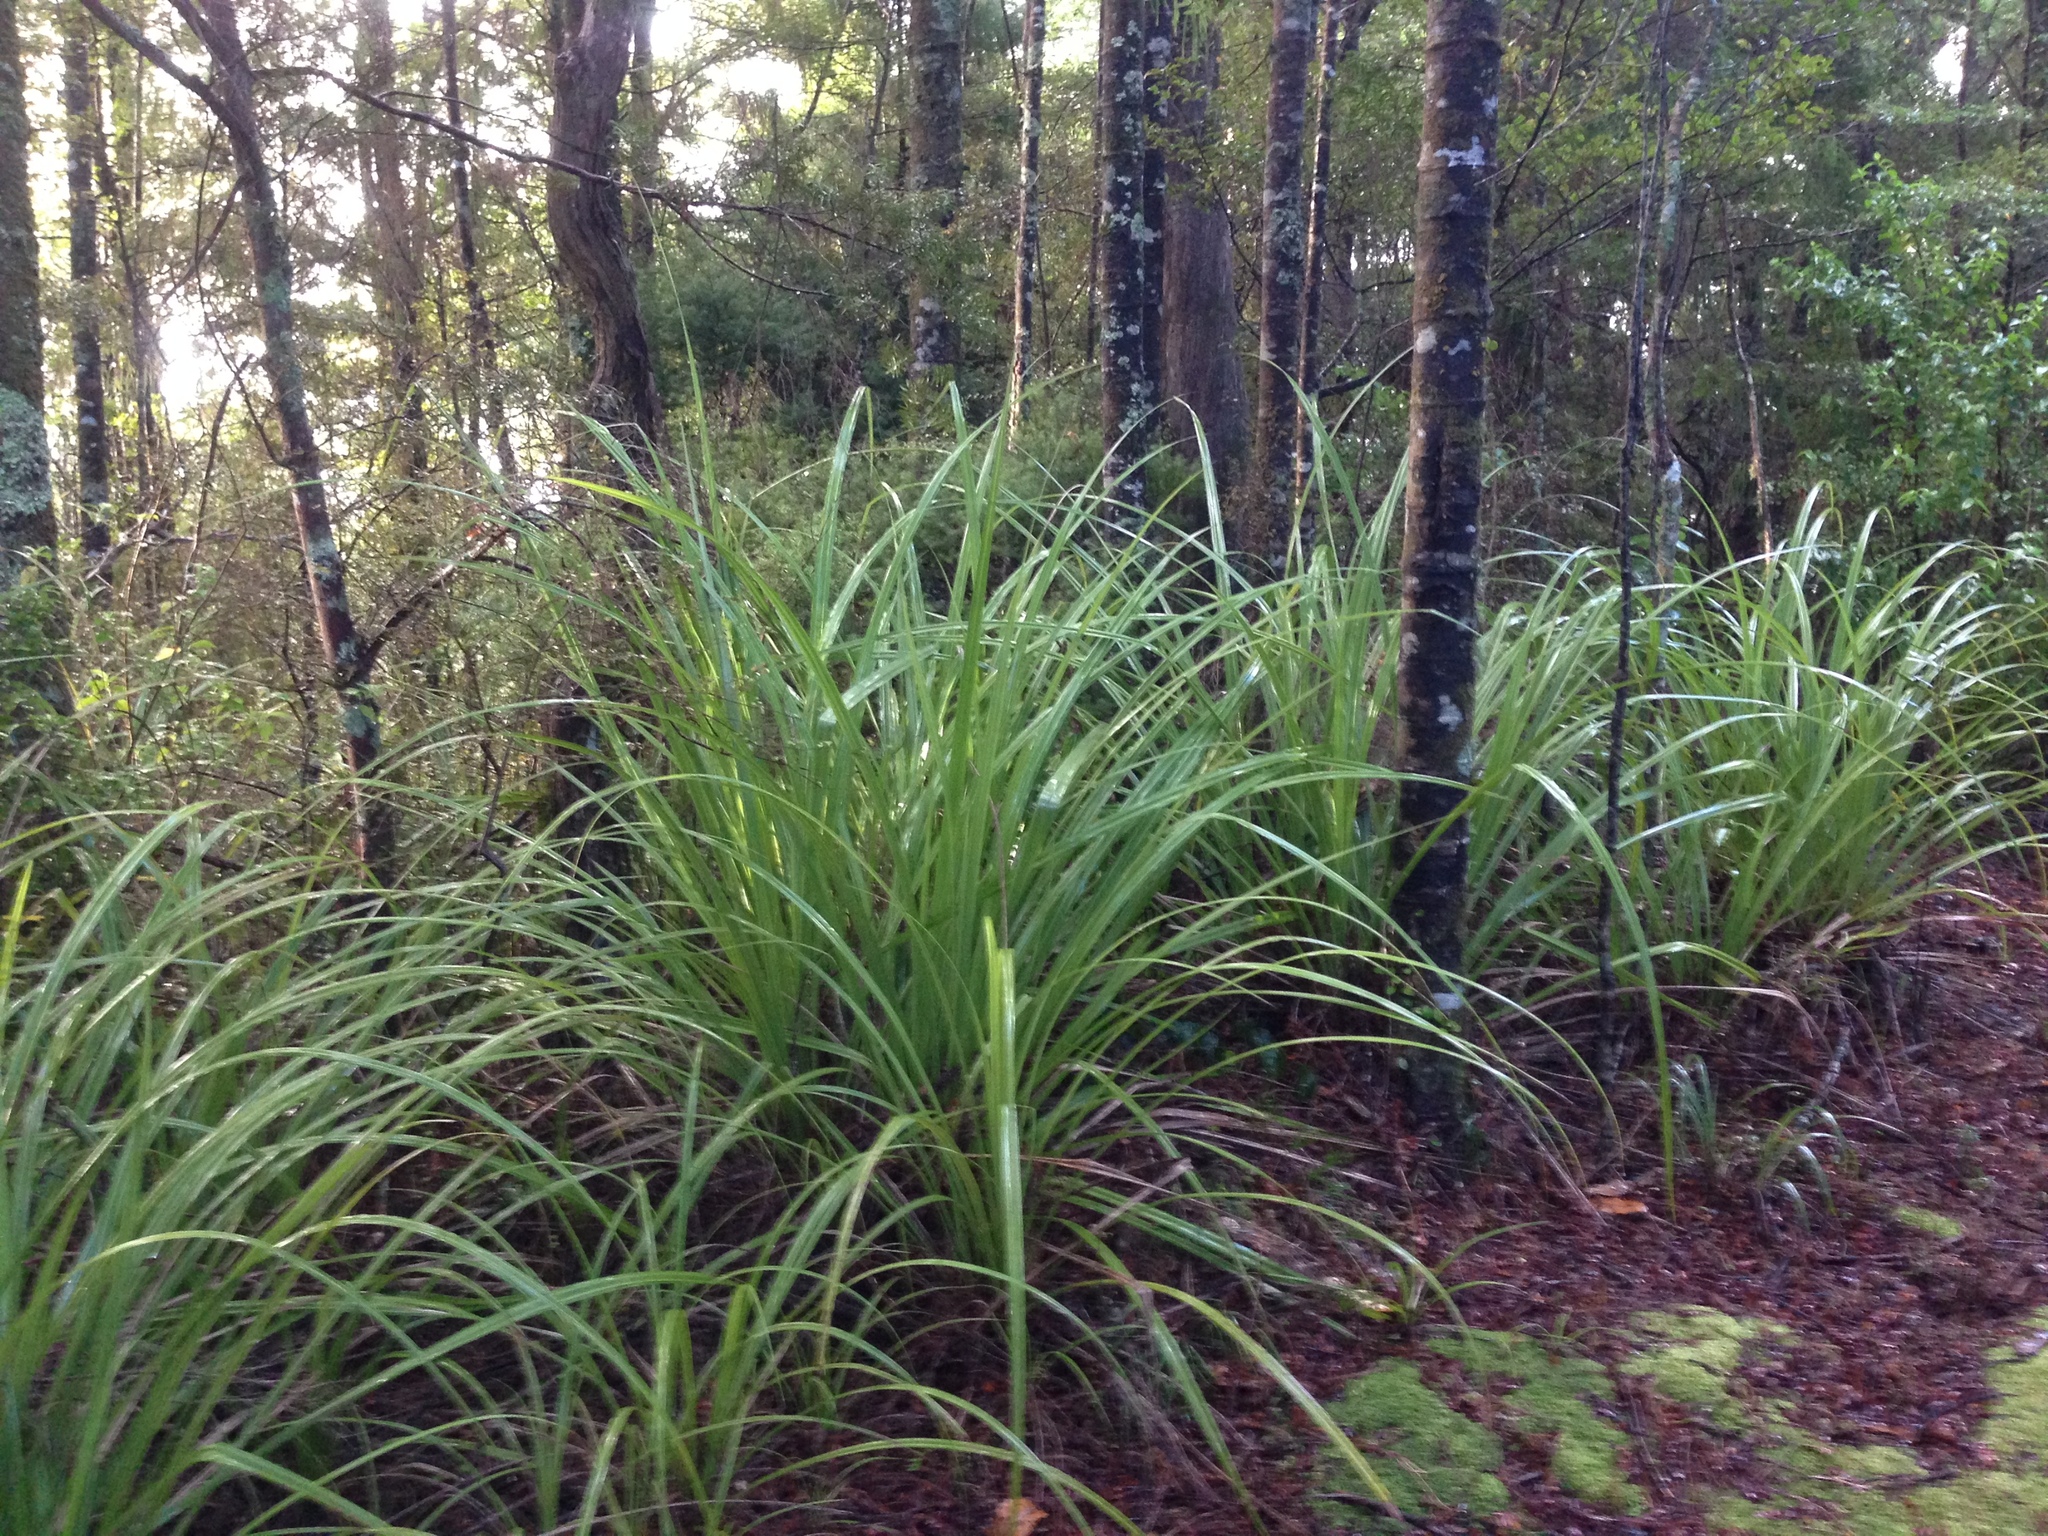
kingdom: Plantae
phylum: Tracheophyta
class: Liliopsida
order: Asparagales
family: Asteliaceae
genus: Astelia
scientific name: Astelia trinervia
